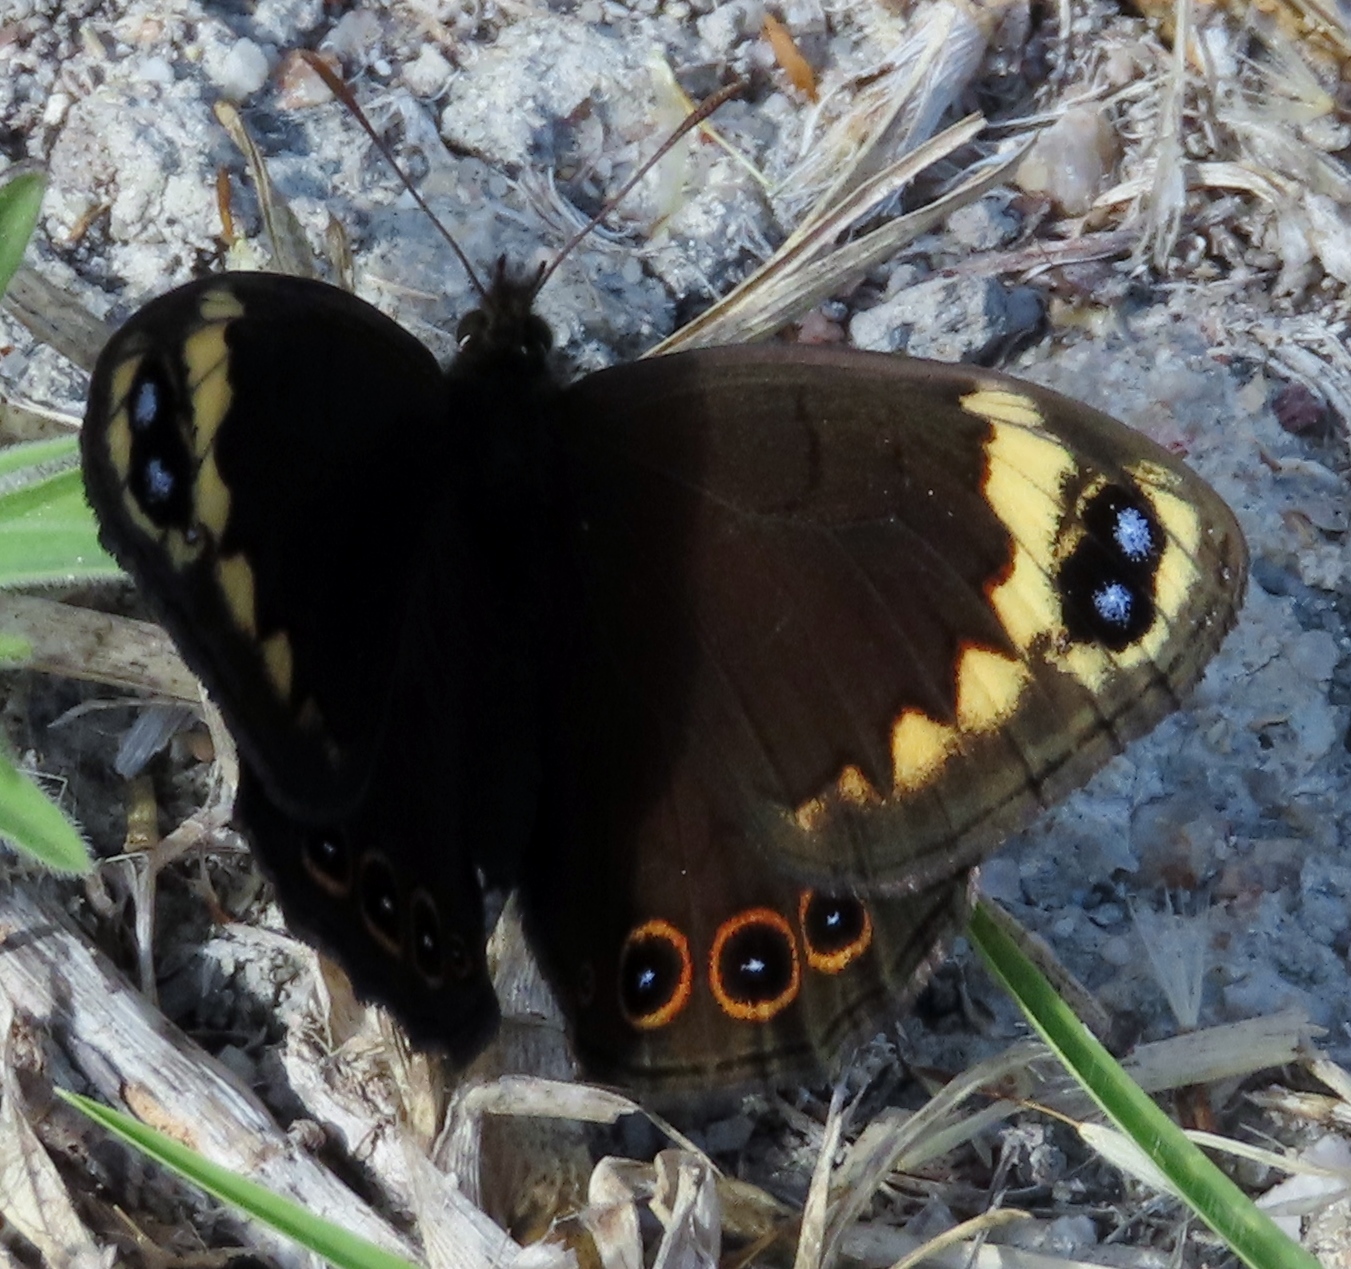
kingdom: Animalia
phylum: Arthropoda
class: Insecta
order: Lepidoptera
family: Nymphalidae
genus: Dira
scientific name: Dira clytus
